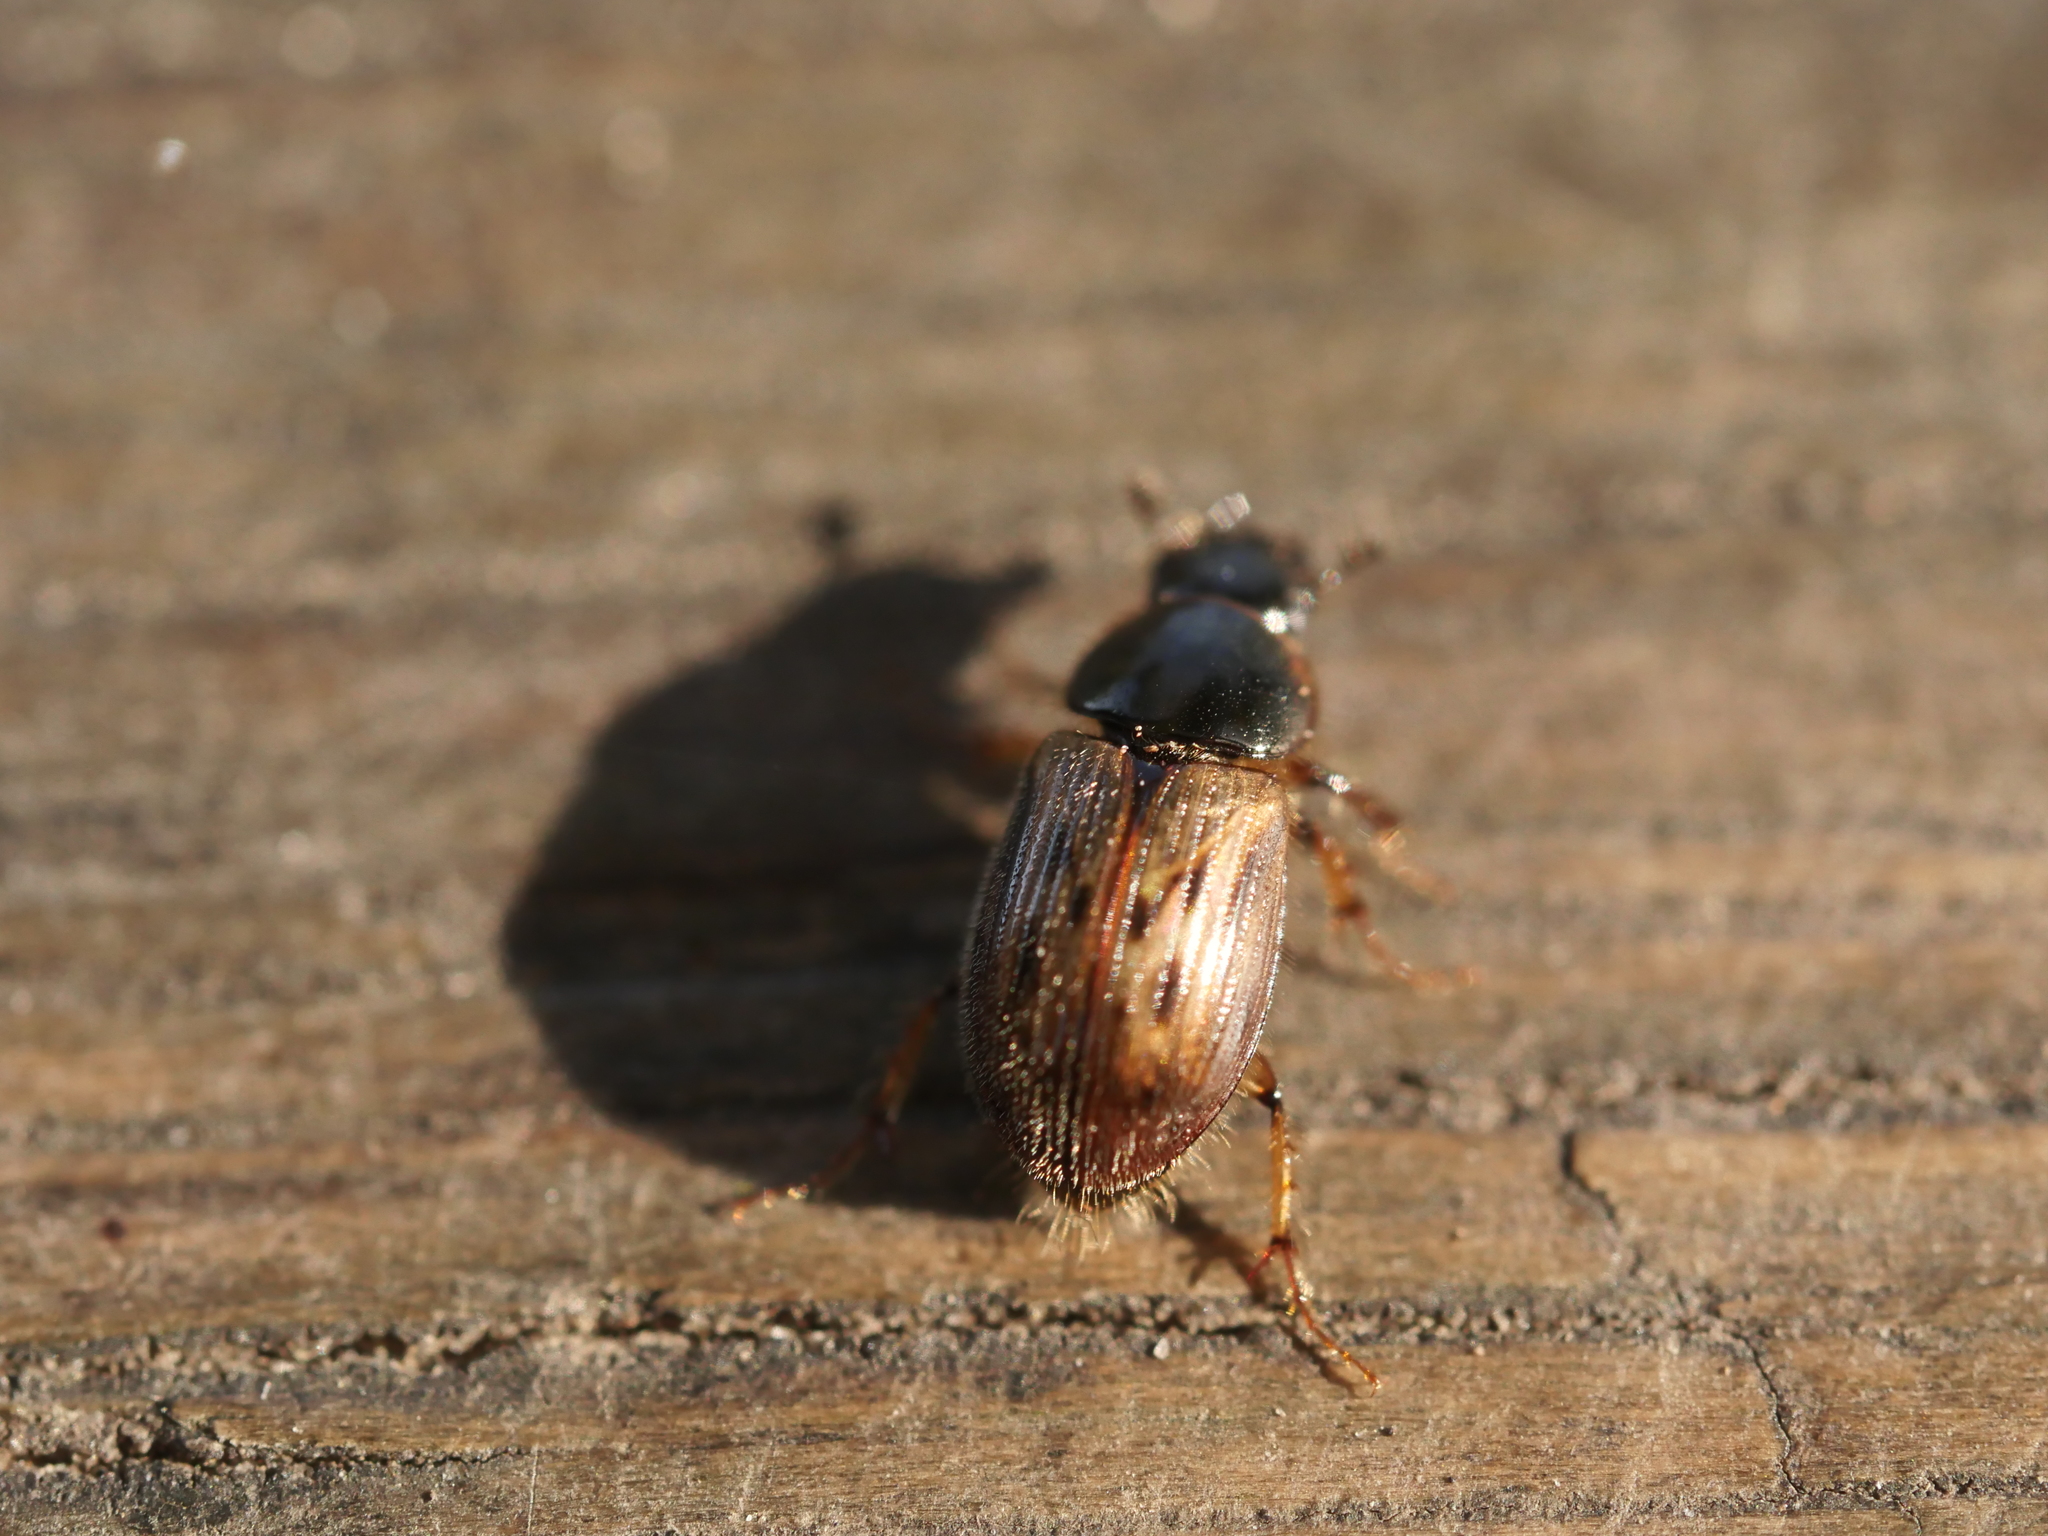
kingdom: Animalia
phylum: Arthropoda
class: Insecta
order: Coleoptera
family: Scarabaeidae
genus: Nimbus
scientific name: Nimbus contaminatus
